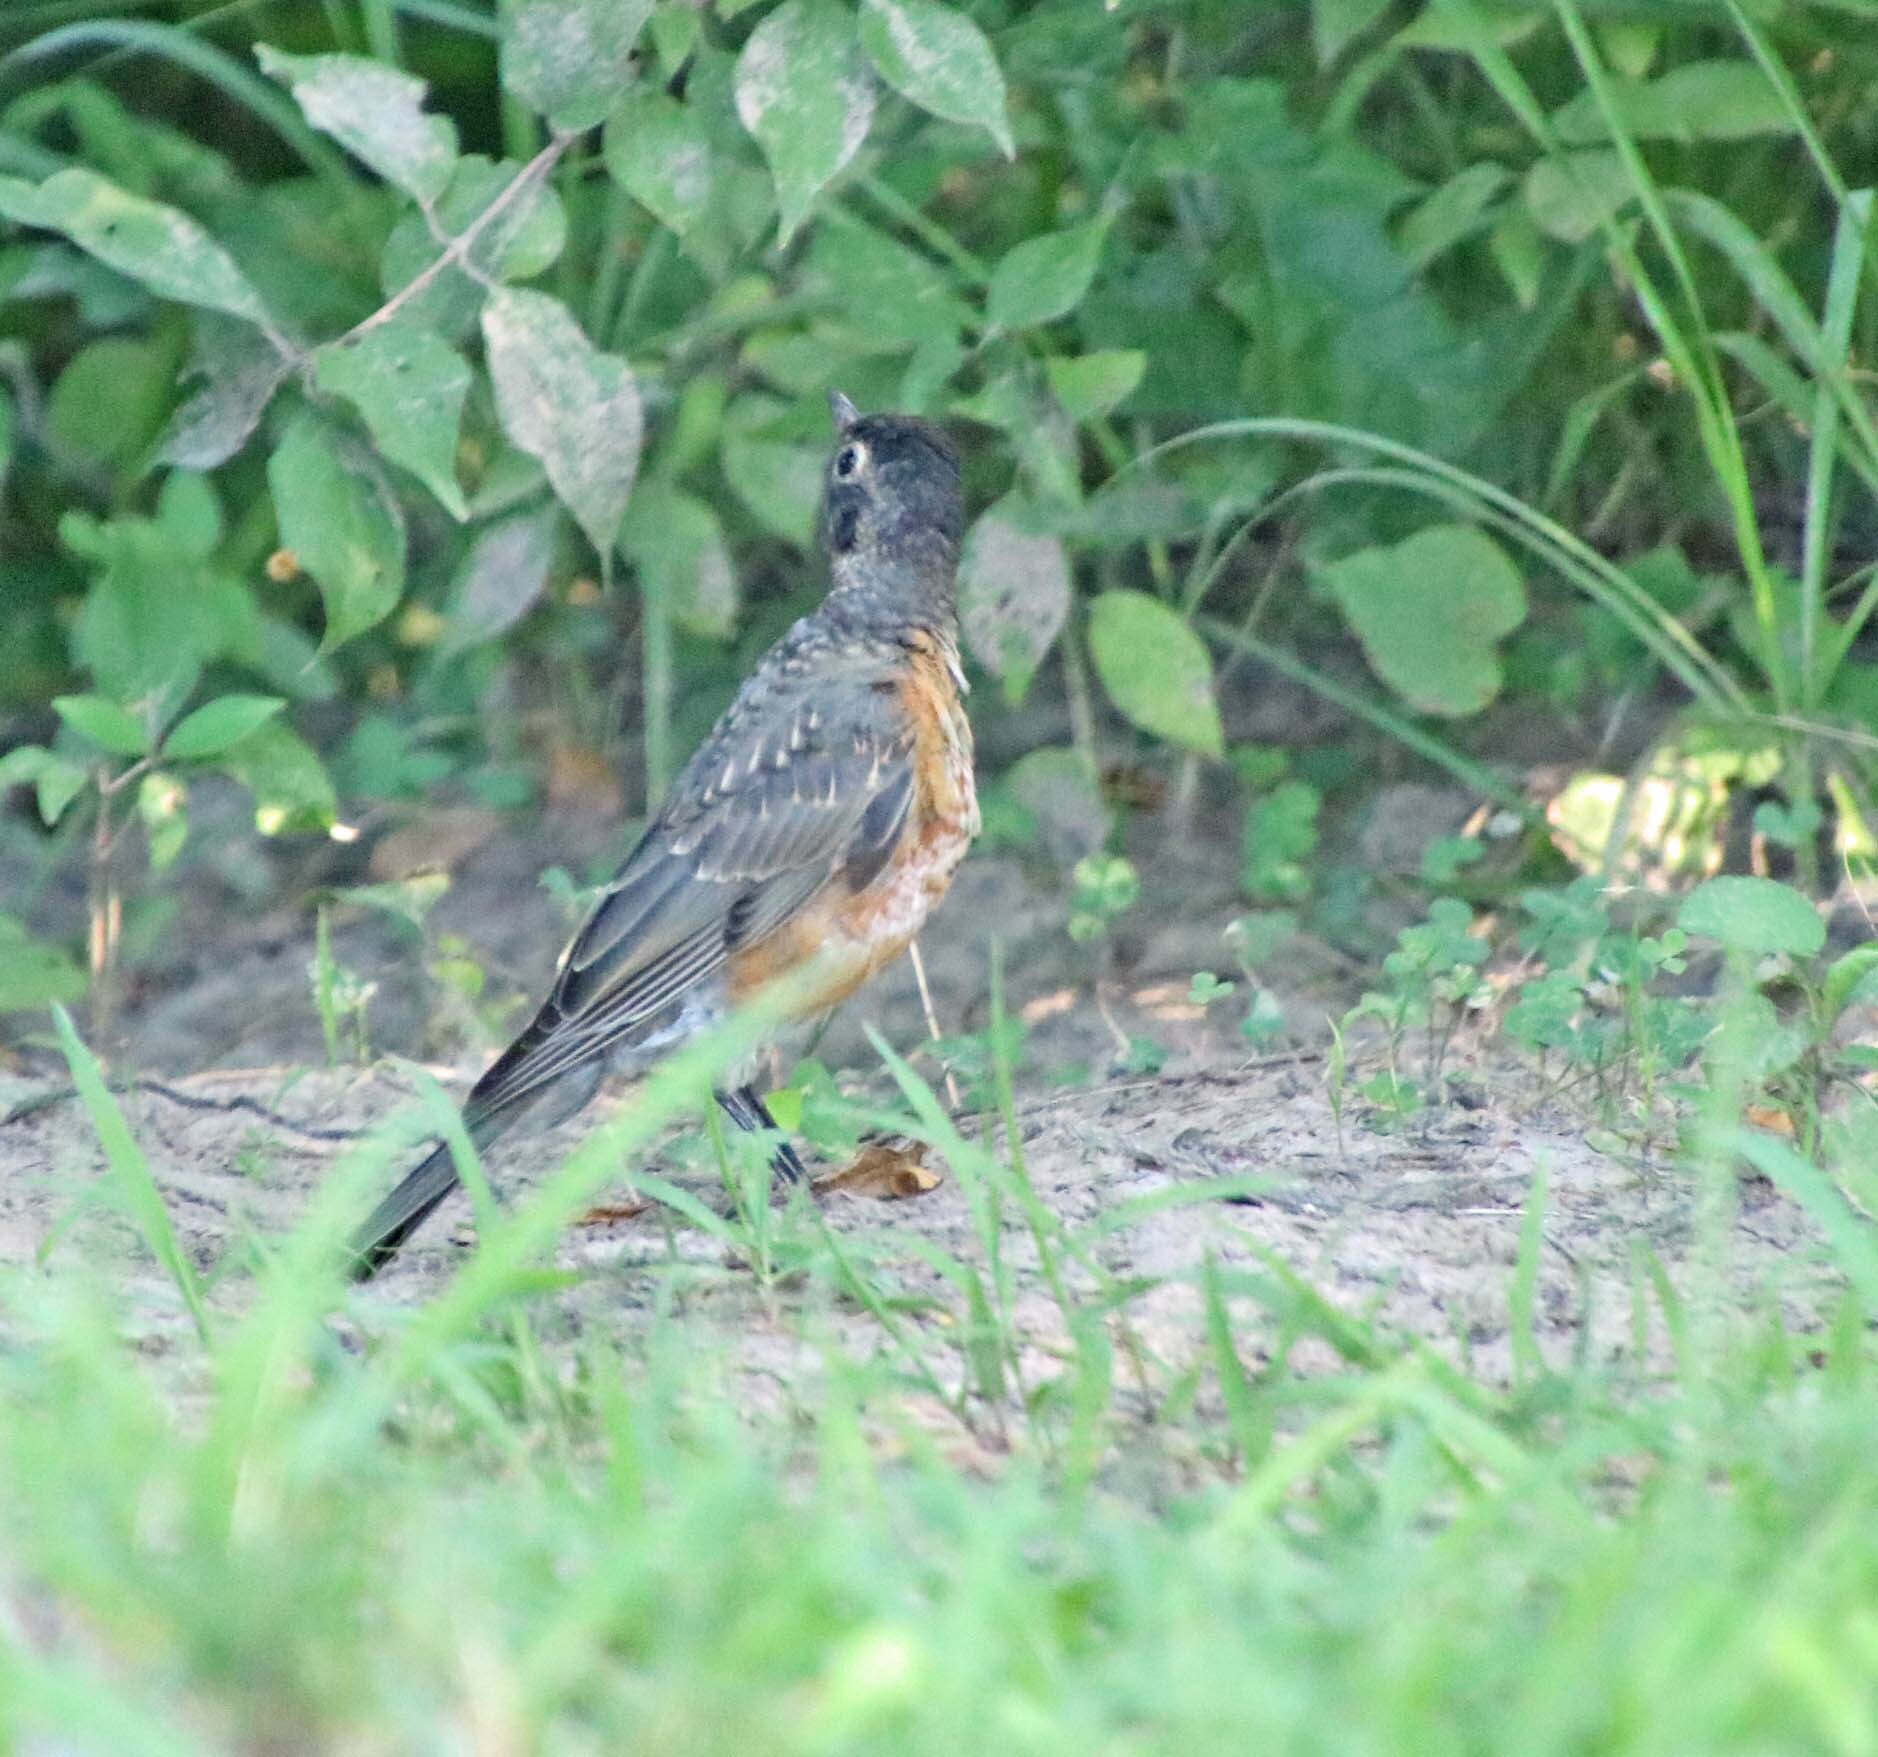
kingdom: Animalia
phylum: Chordata
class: Aves
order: Passeriformes
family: Turdidae
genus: Turdus
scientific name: Turdus migratorius
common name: American robin
